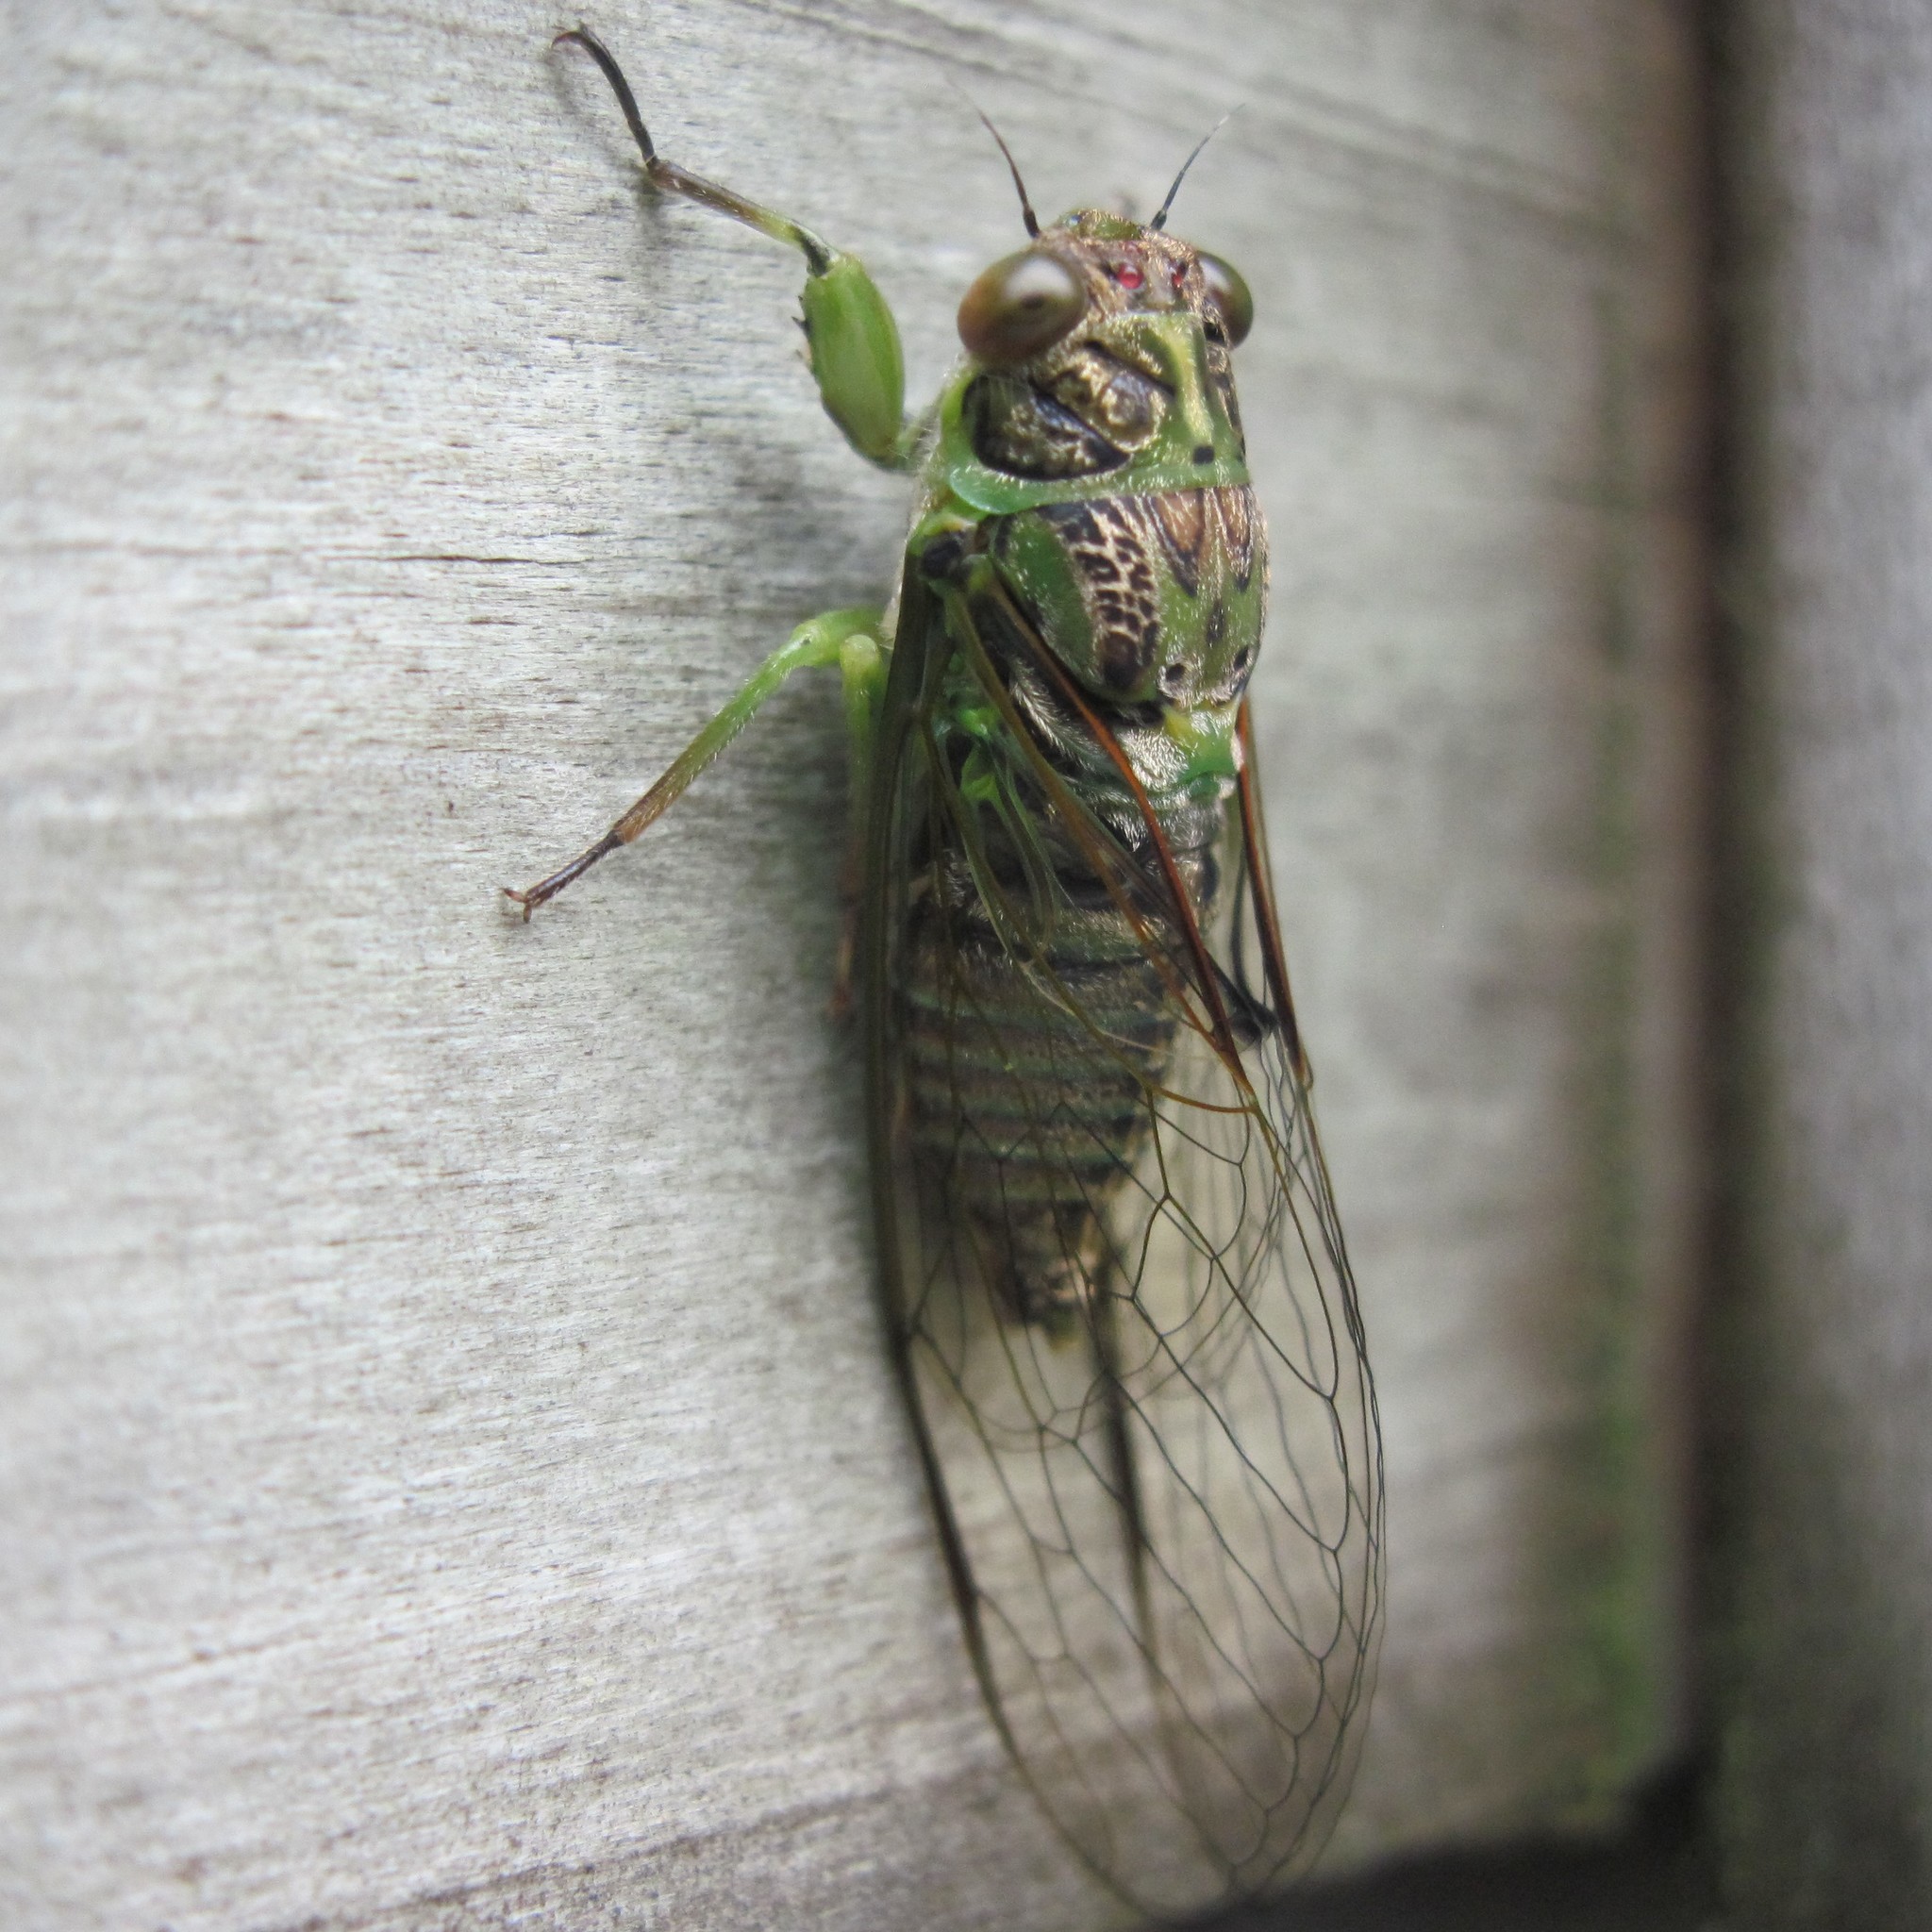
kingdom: Animalia
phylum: Arthropoda
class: Insecta
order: Hemiptera
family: Cicadidae
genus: Kikihia
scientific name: Kikihia scutellaris
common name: Lesser bronze cicada
